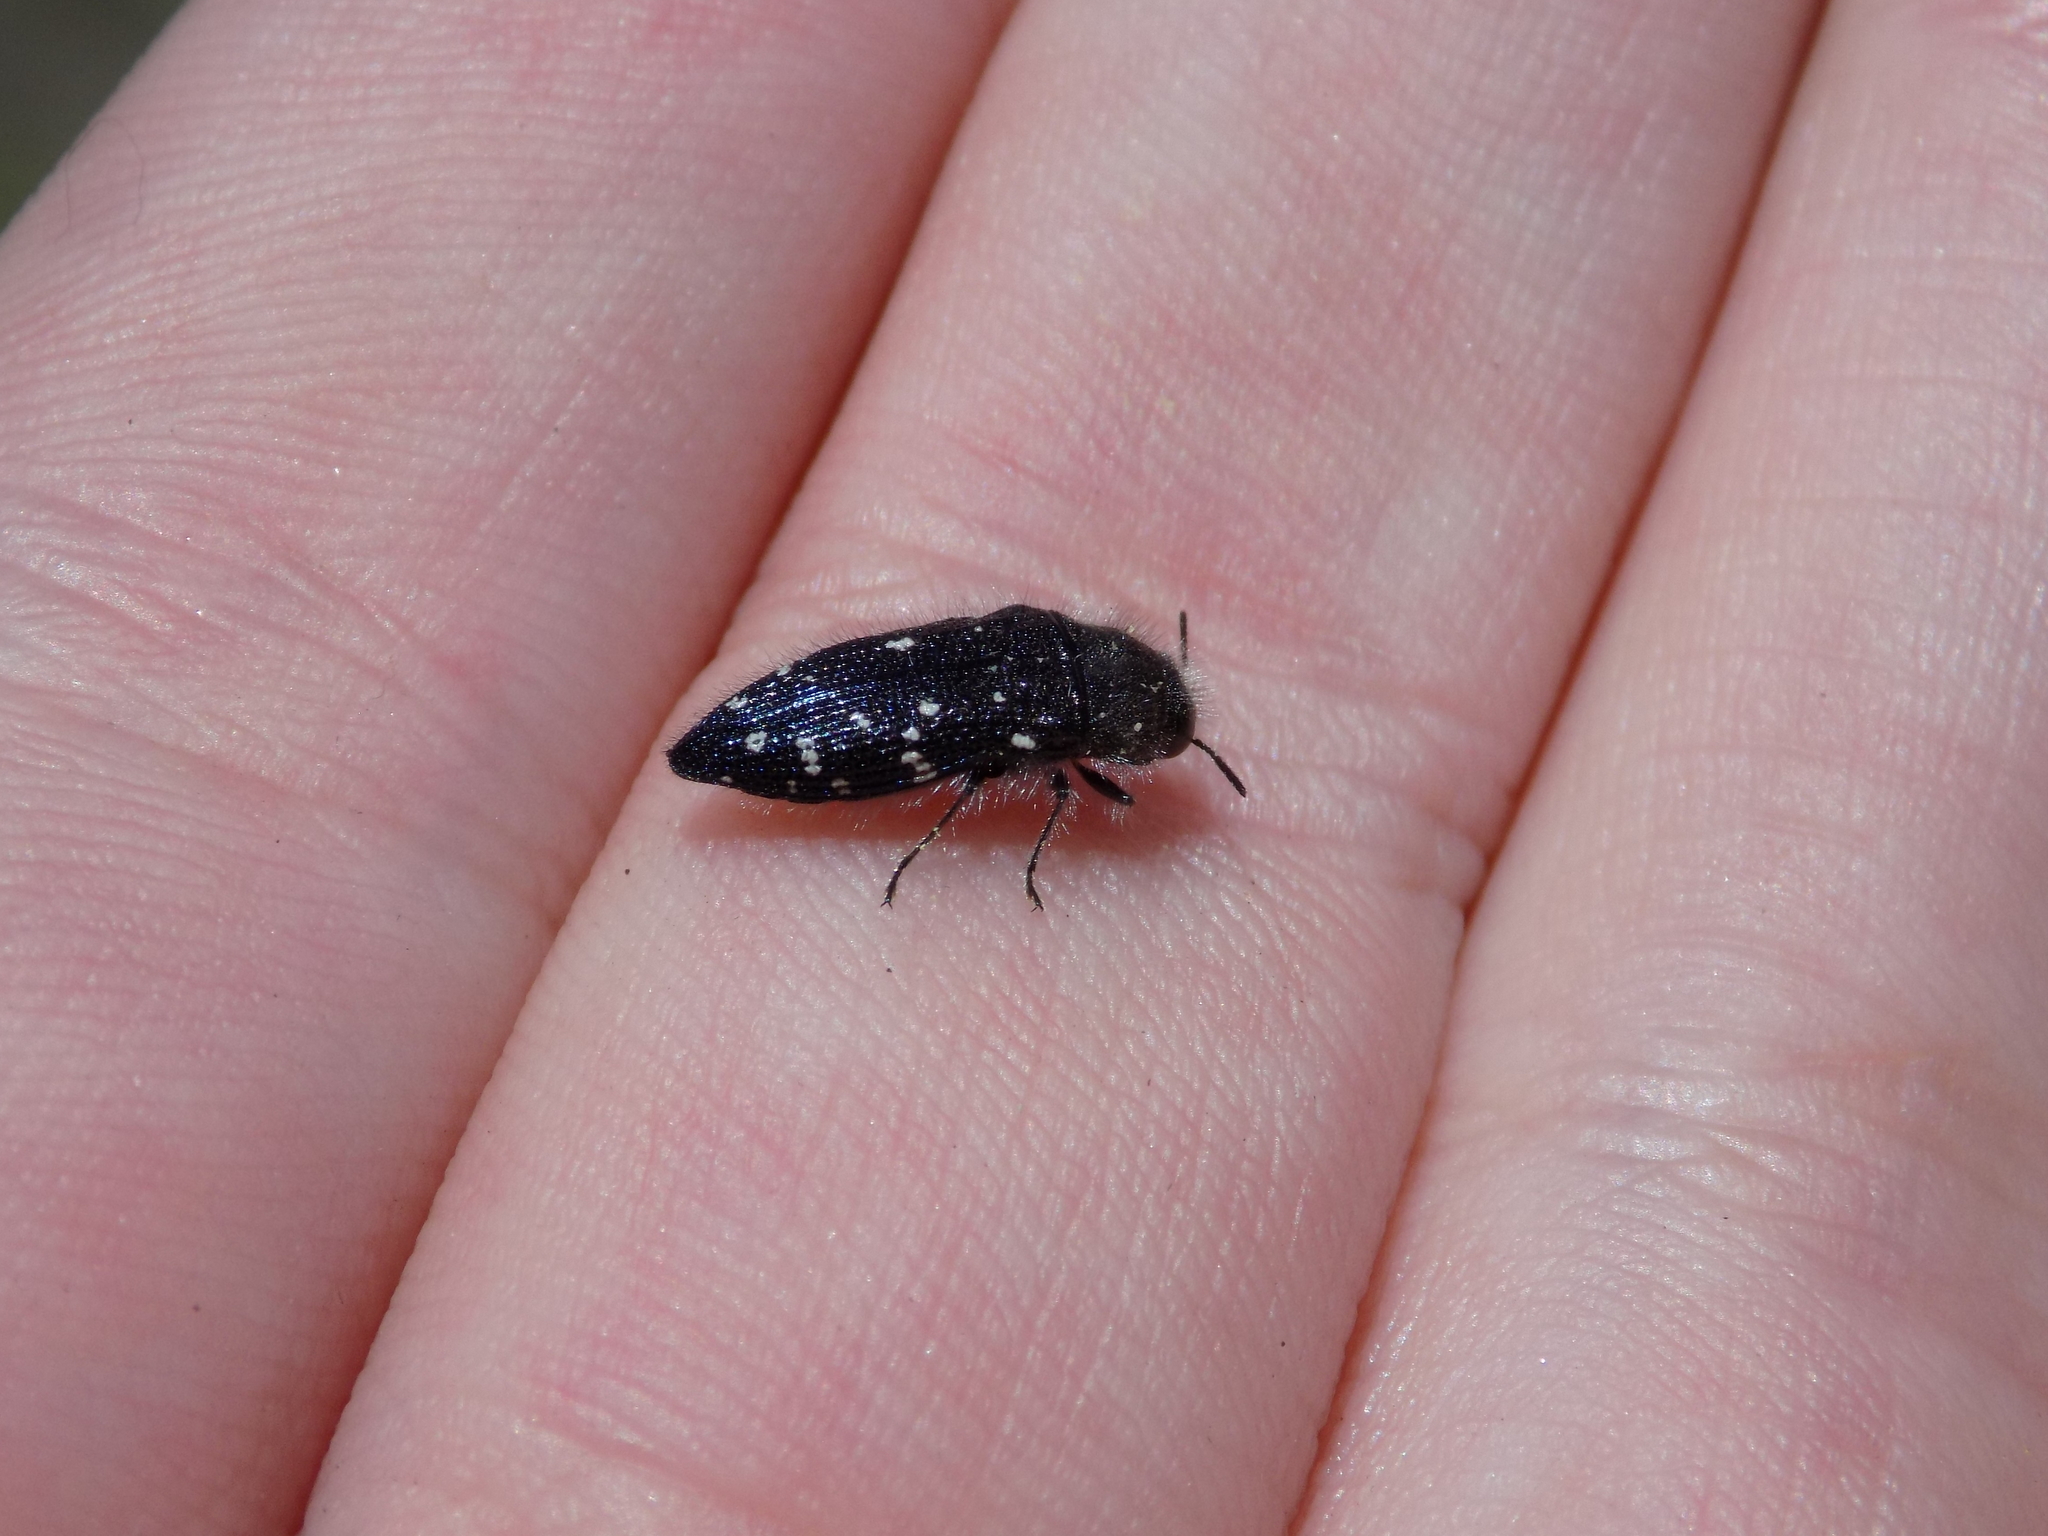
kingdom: Animalia
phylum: Arthropoda
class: Insecta
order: Coleoptera
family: Buprestidae
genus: Acmaeodera
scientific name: Acmaeodera ornatoides
